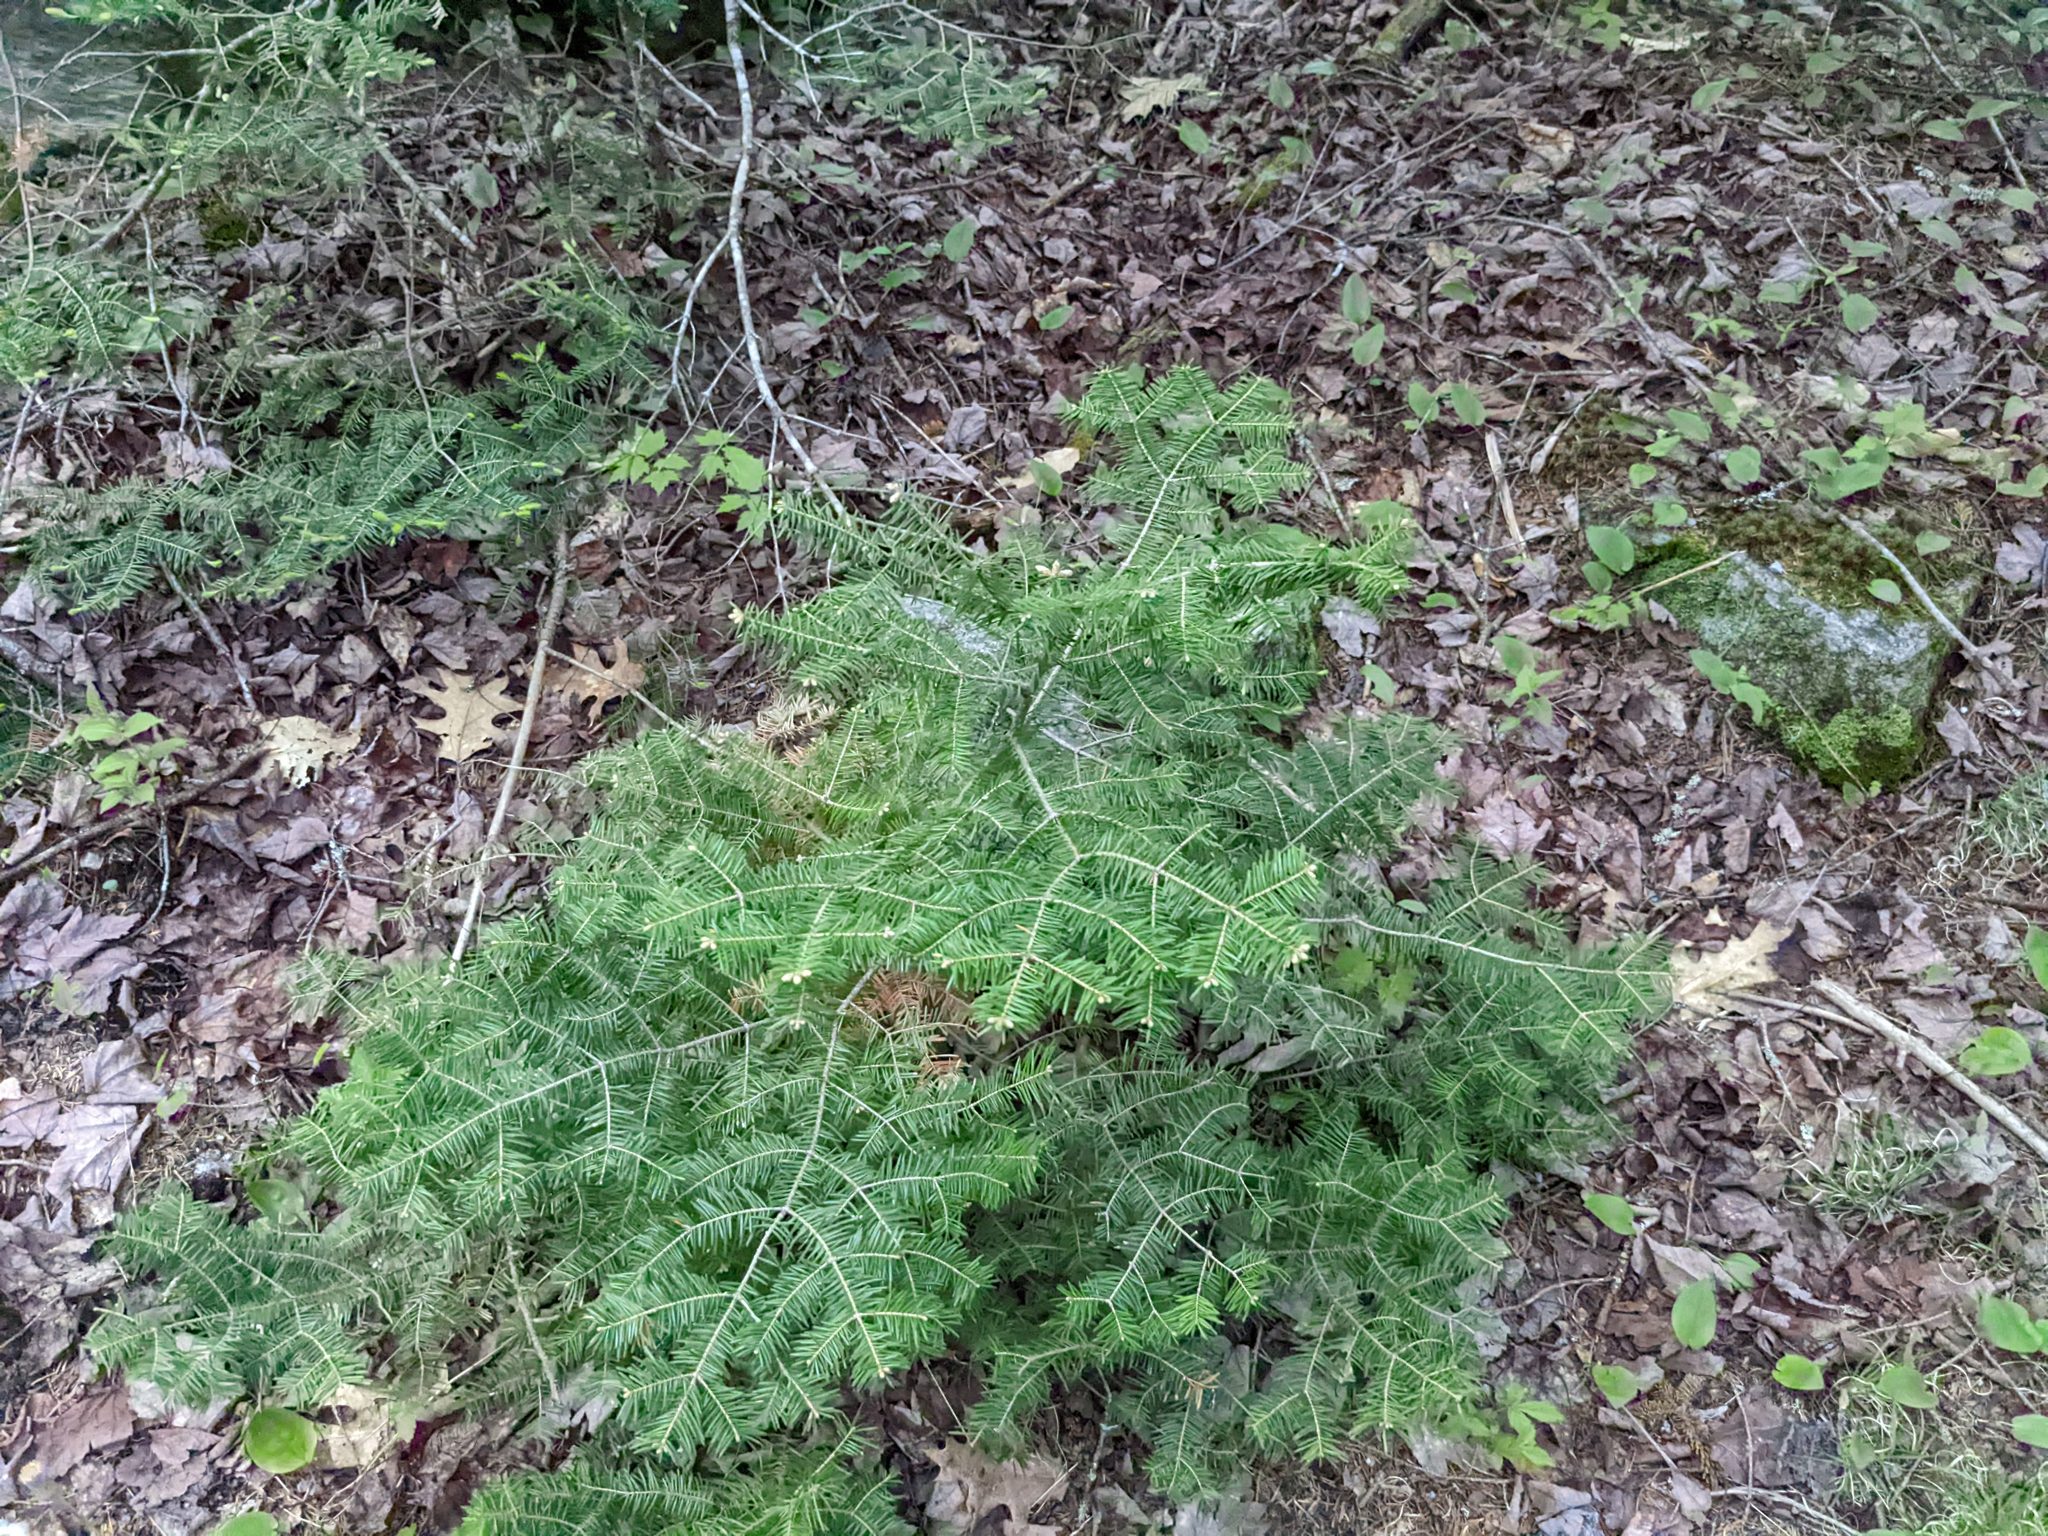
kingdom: Plantae
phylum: Tracheophyta
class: Pinopsida
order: Pinales
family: Pinaceae
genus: Abies
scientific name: Abies balsamea
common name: Balsam fir
